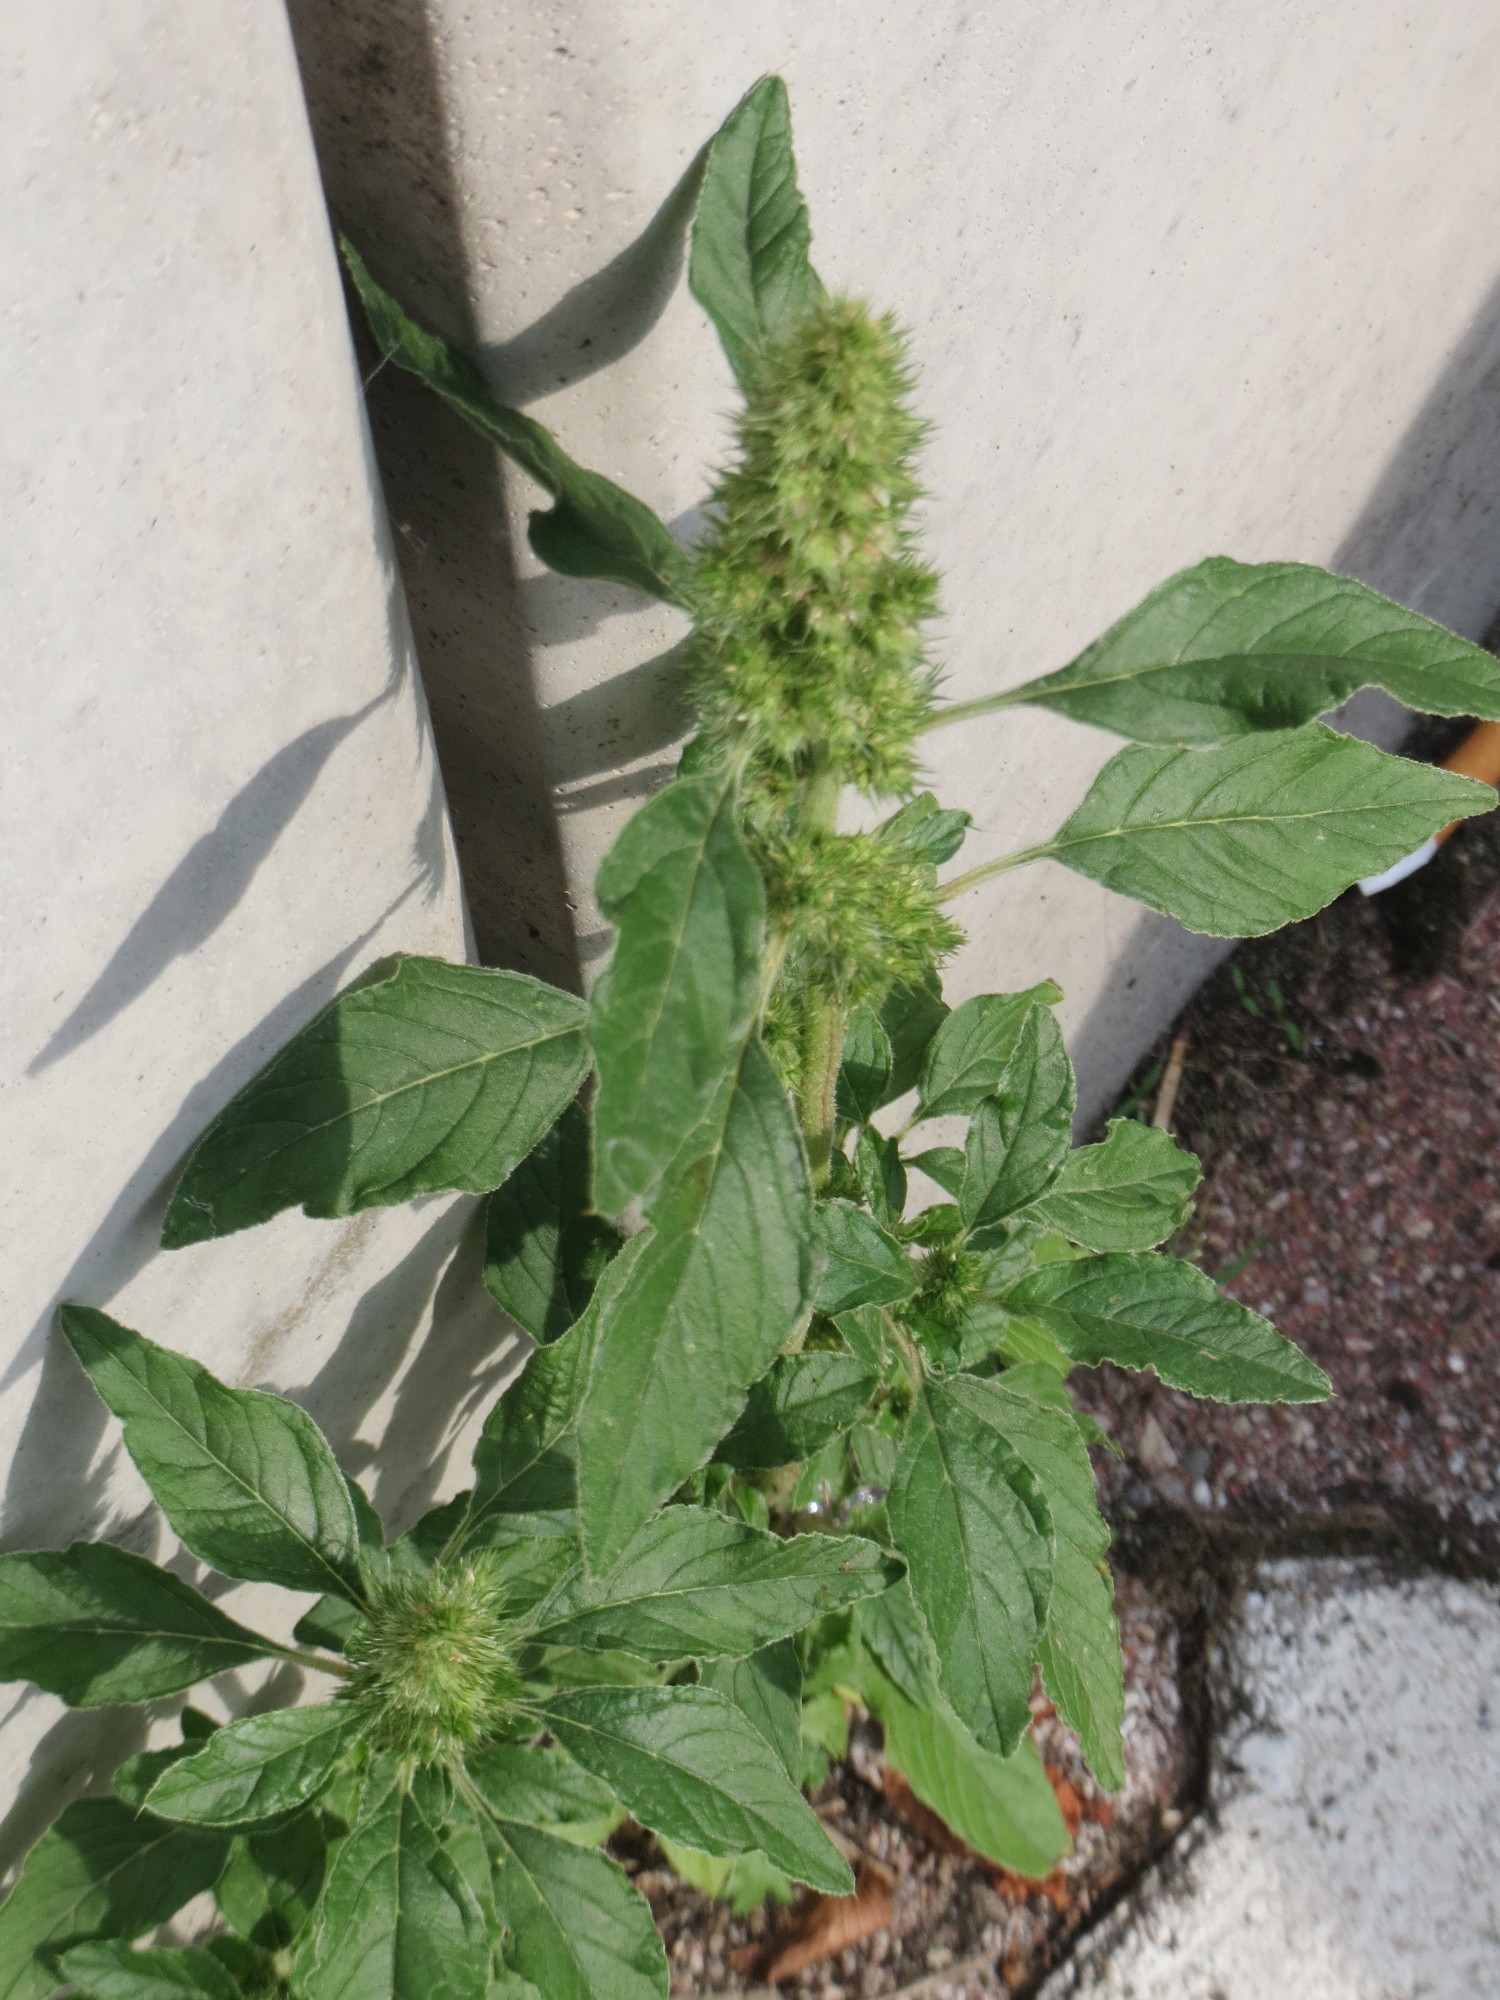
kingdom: Plantae
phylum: Tracheophyta
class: Magnoliopsida
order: Caryophyllales
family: Amaranthaceae
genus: Amaranthus
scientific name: Amaranthus retroflexus
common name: Redroot amaranth
